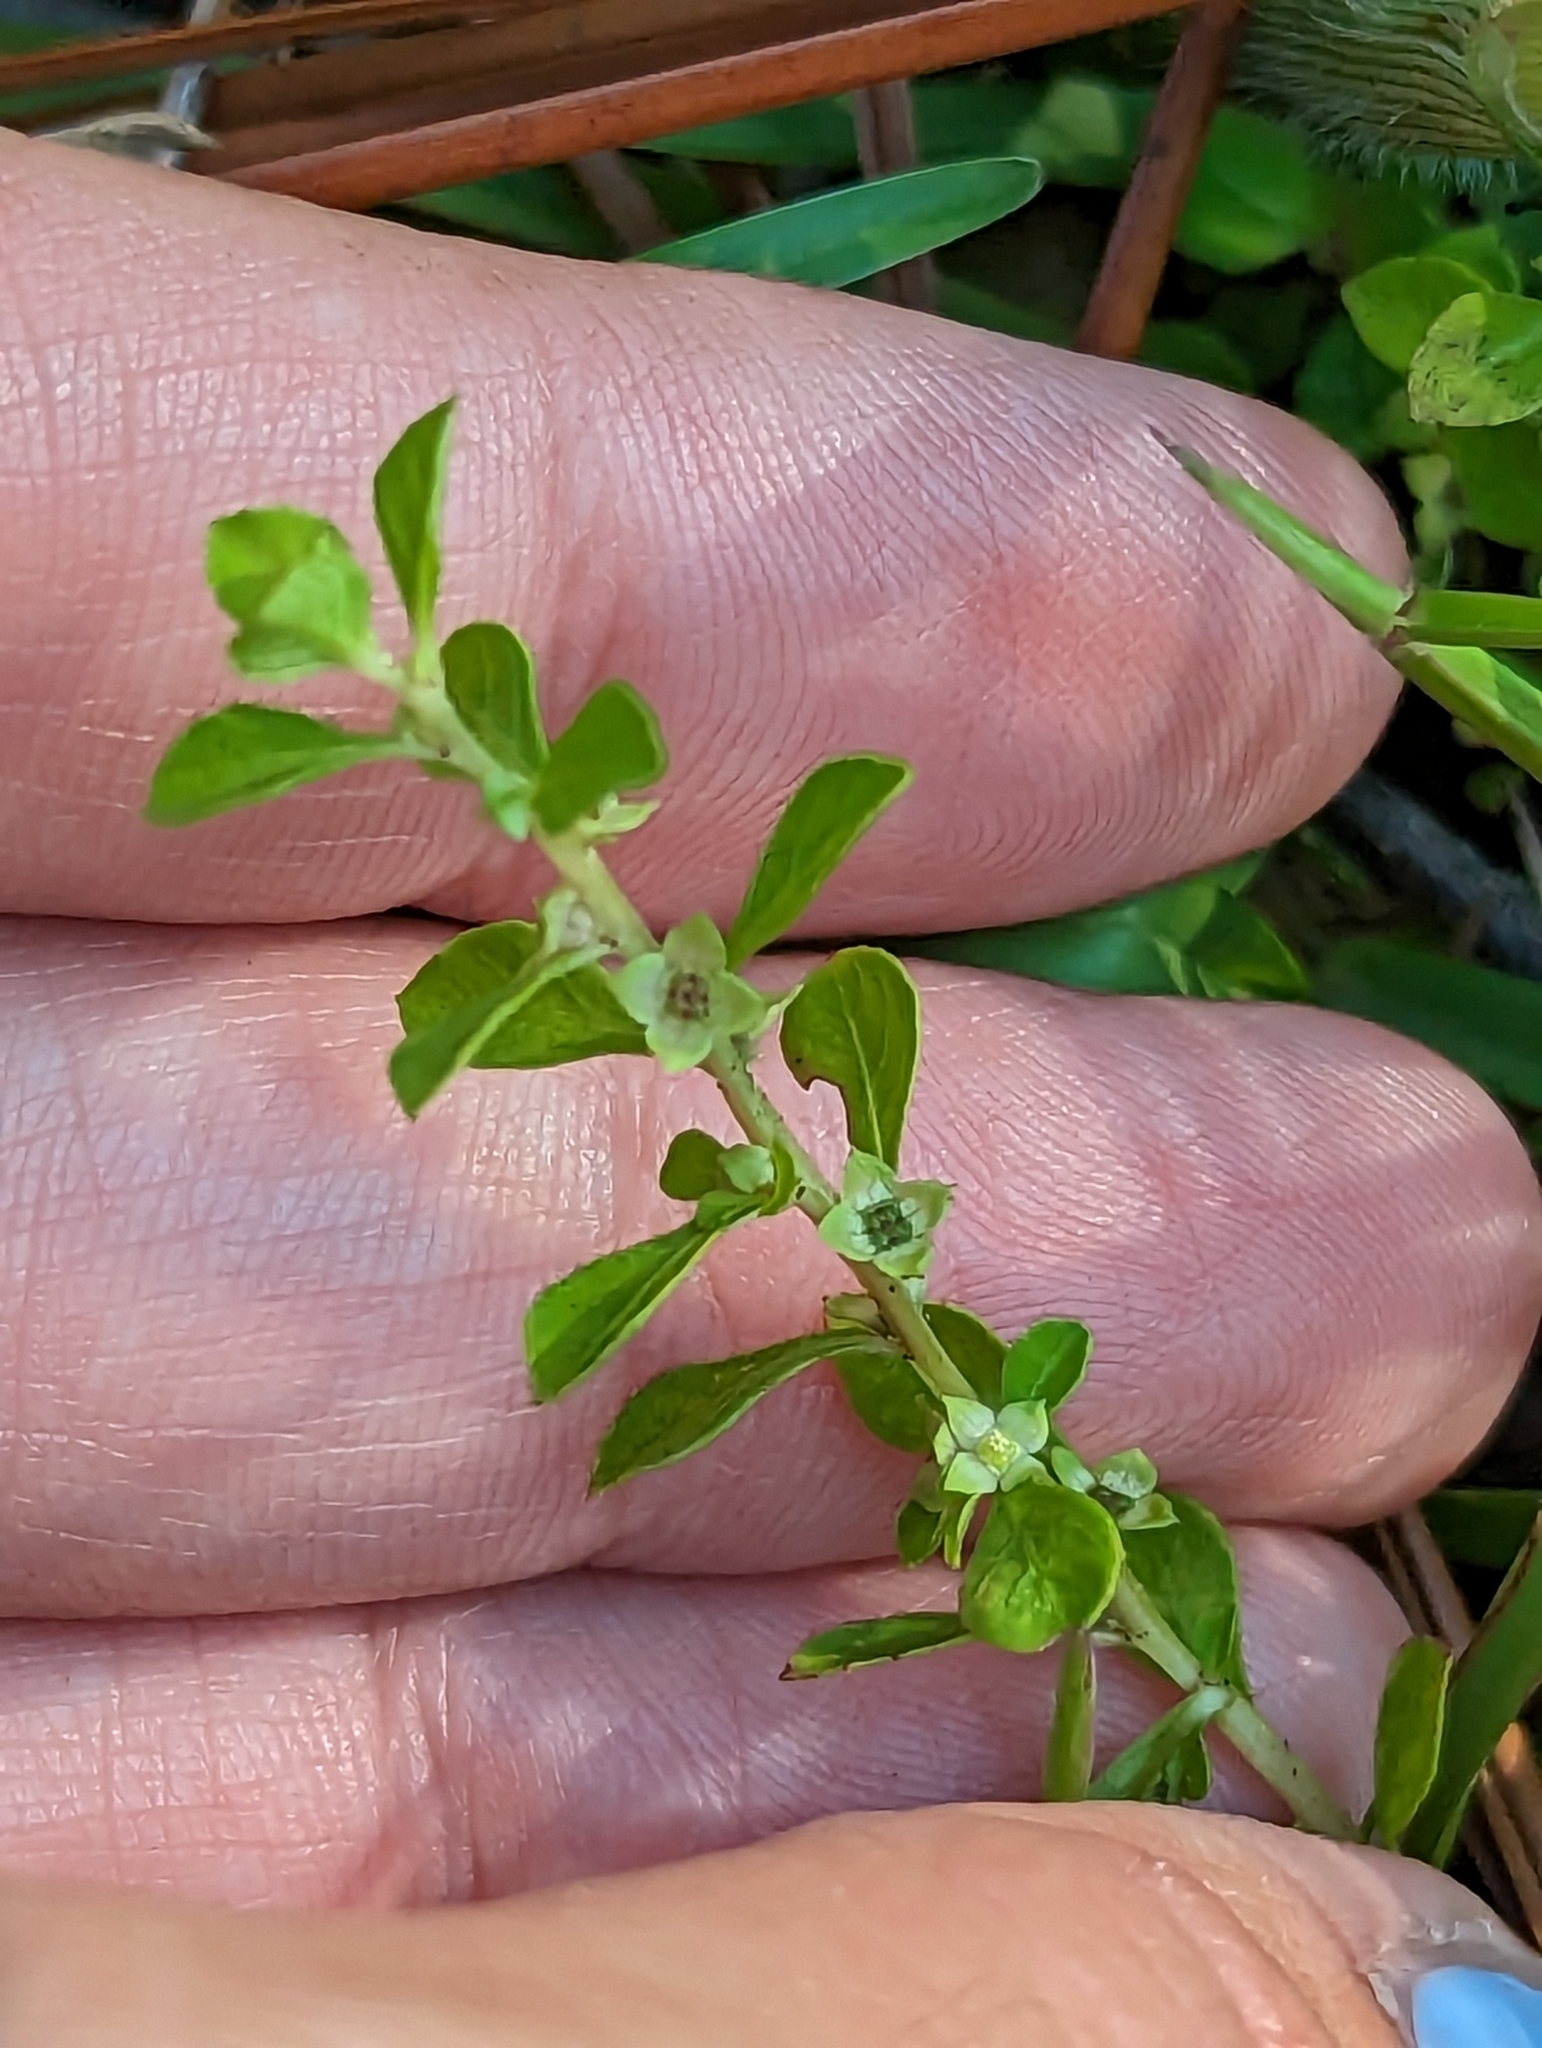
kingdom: Plantae
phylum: Tracheophyta
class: Magnoliopsida
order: Myrtales
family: Onagraceae
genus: Ludwigia
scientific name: Ludwigia microcarpa
